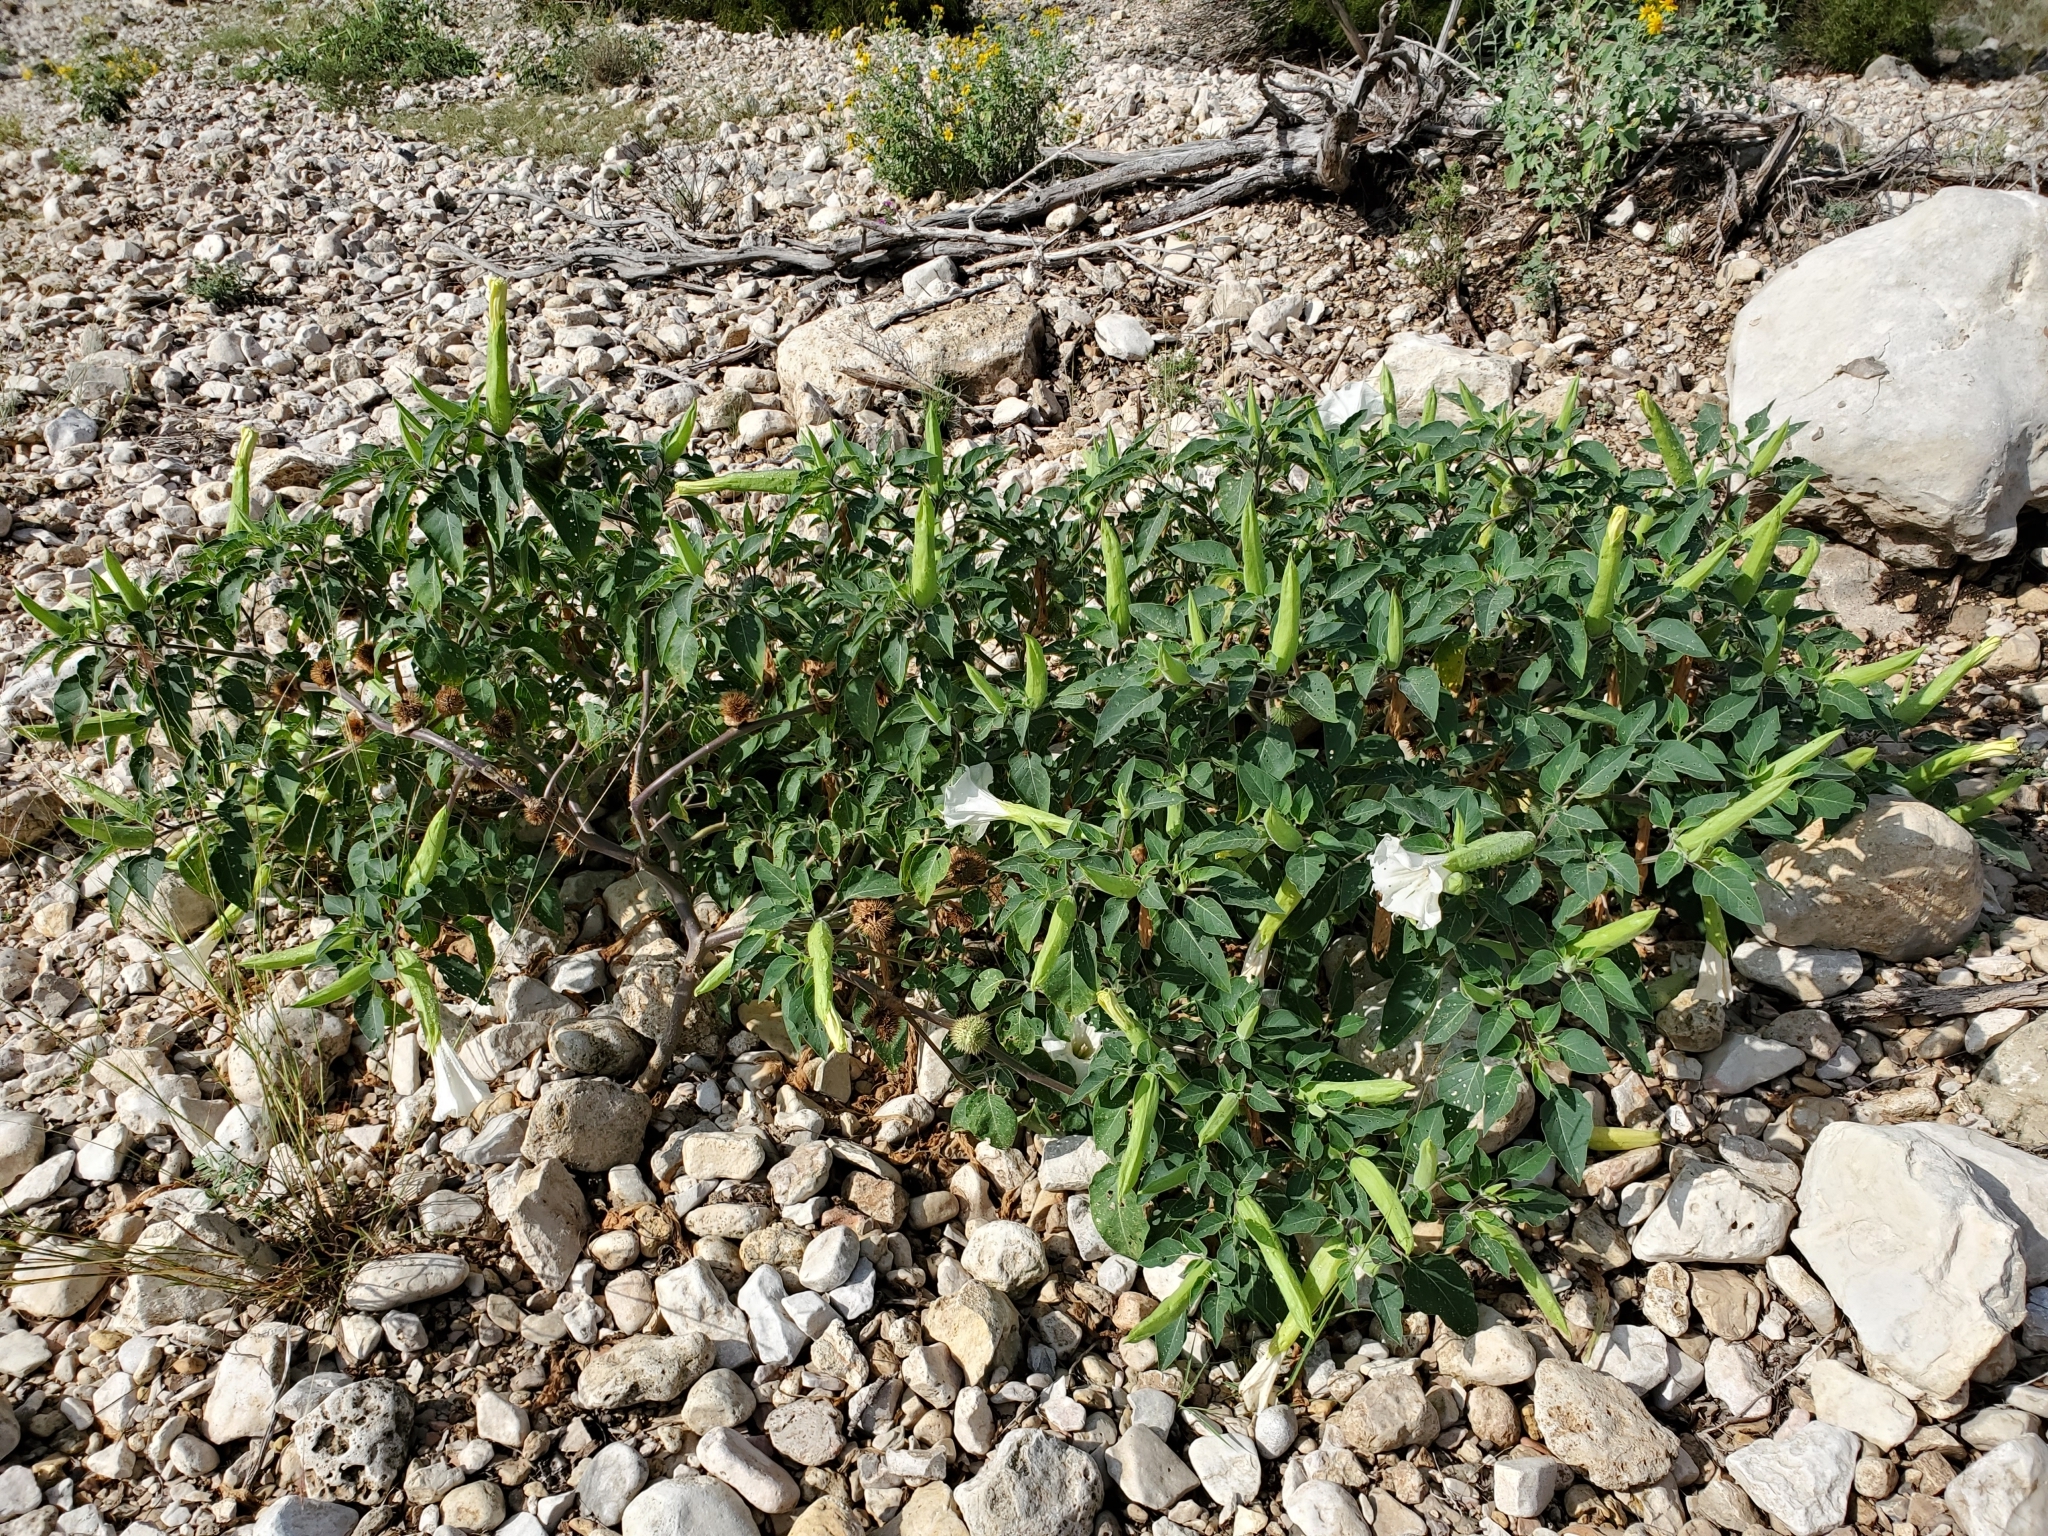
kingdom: Plantae
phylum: Tracheophyta
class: Magnoliopsida
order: Solanales
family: Solanaceae
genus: Datura
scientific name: Datura innoxia
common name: Downy thorn-apple
